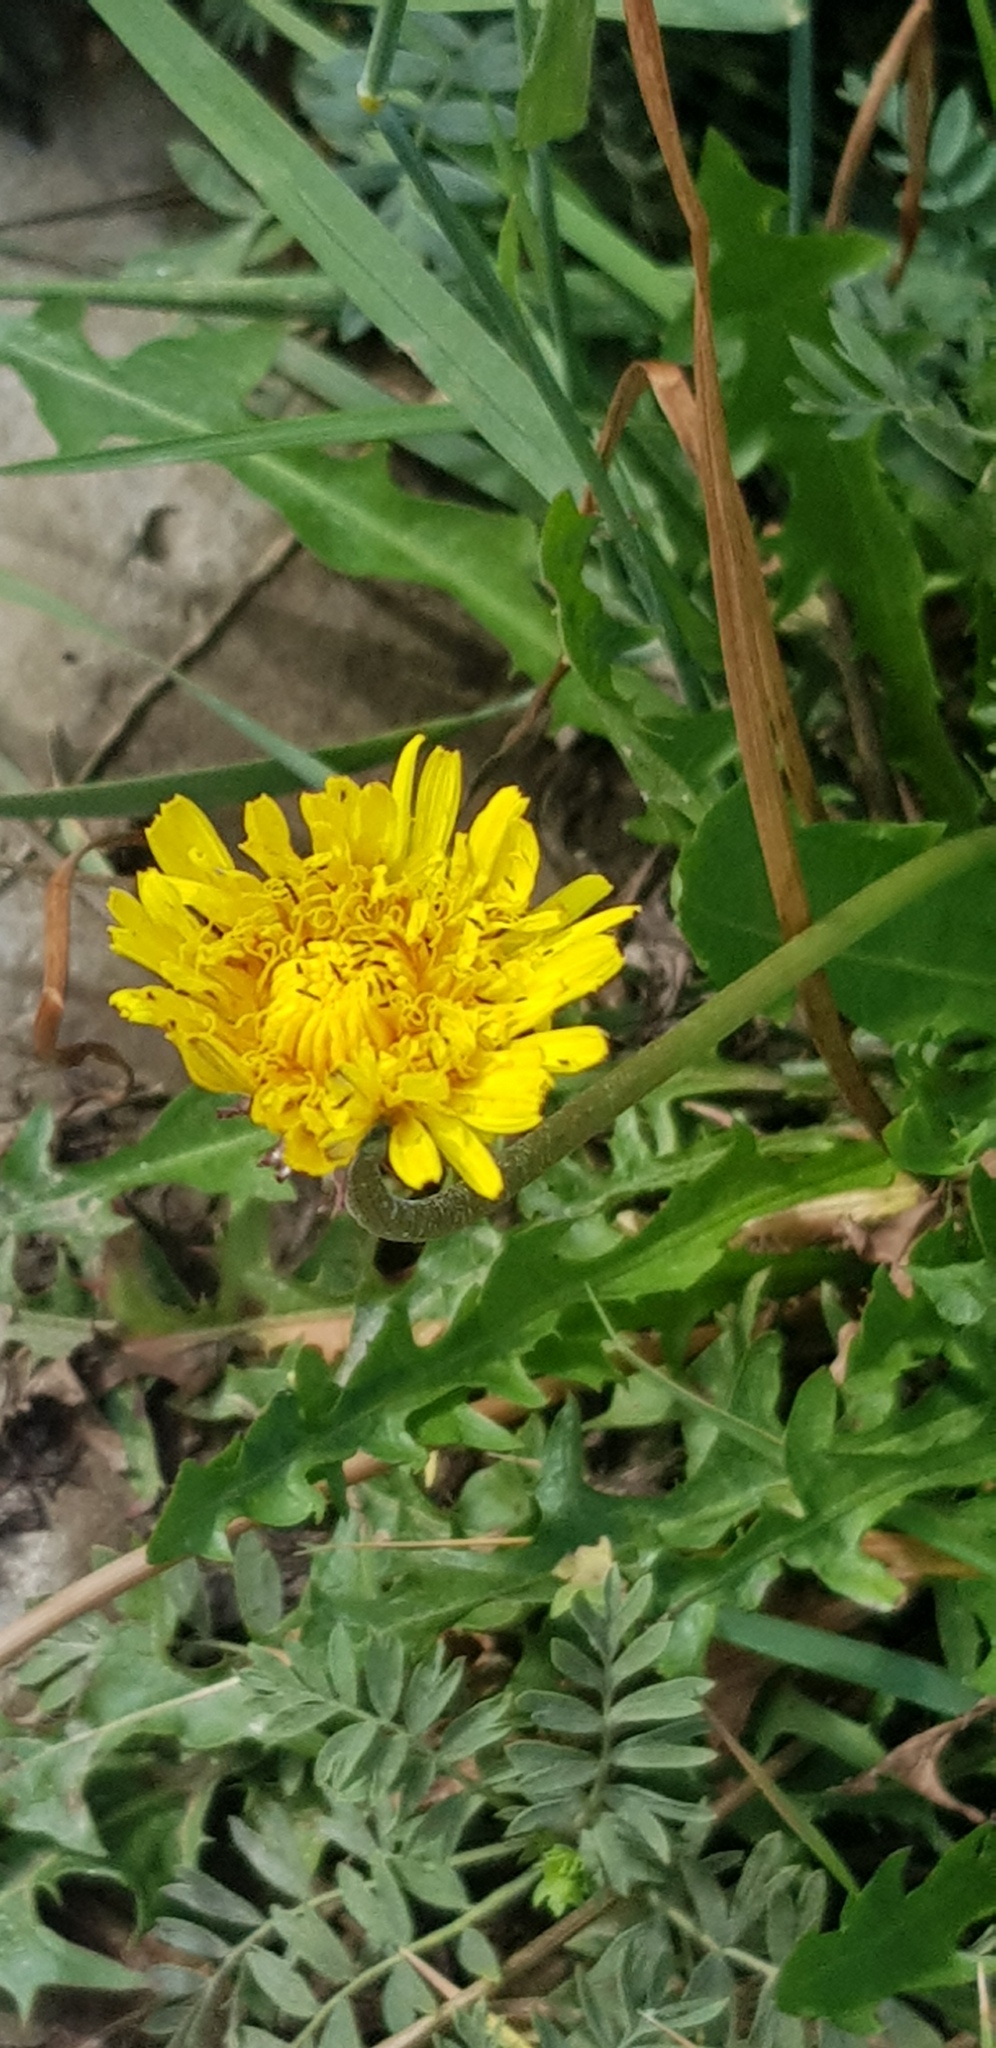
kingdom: Plantae
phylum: Tracheophyta
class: Magnoliopsida
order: Asterales
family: Asteraceae
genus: Taraxacum
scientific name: Taraxacum officinale
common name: Common dandelion
